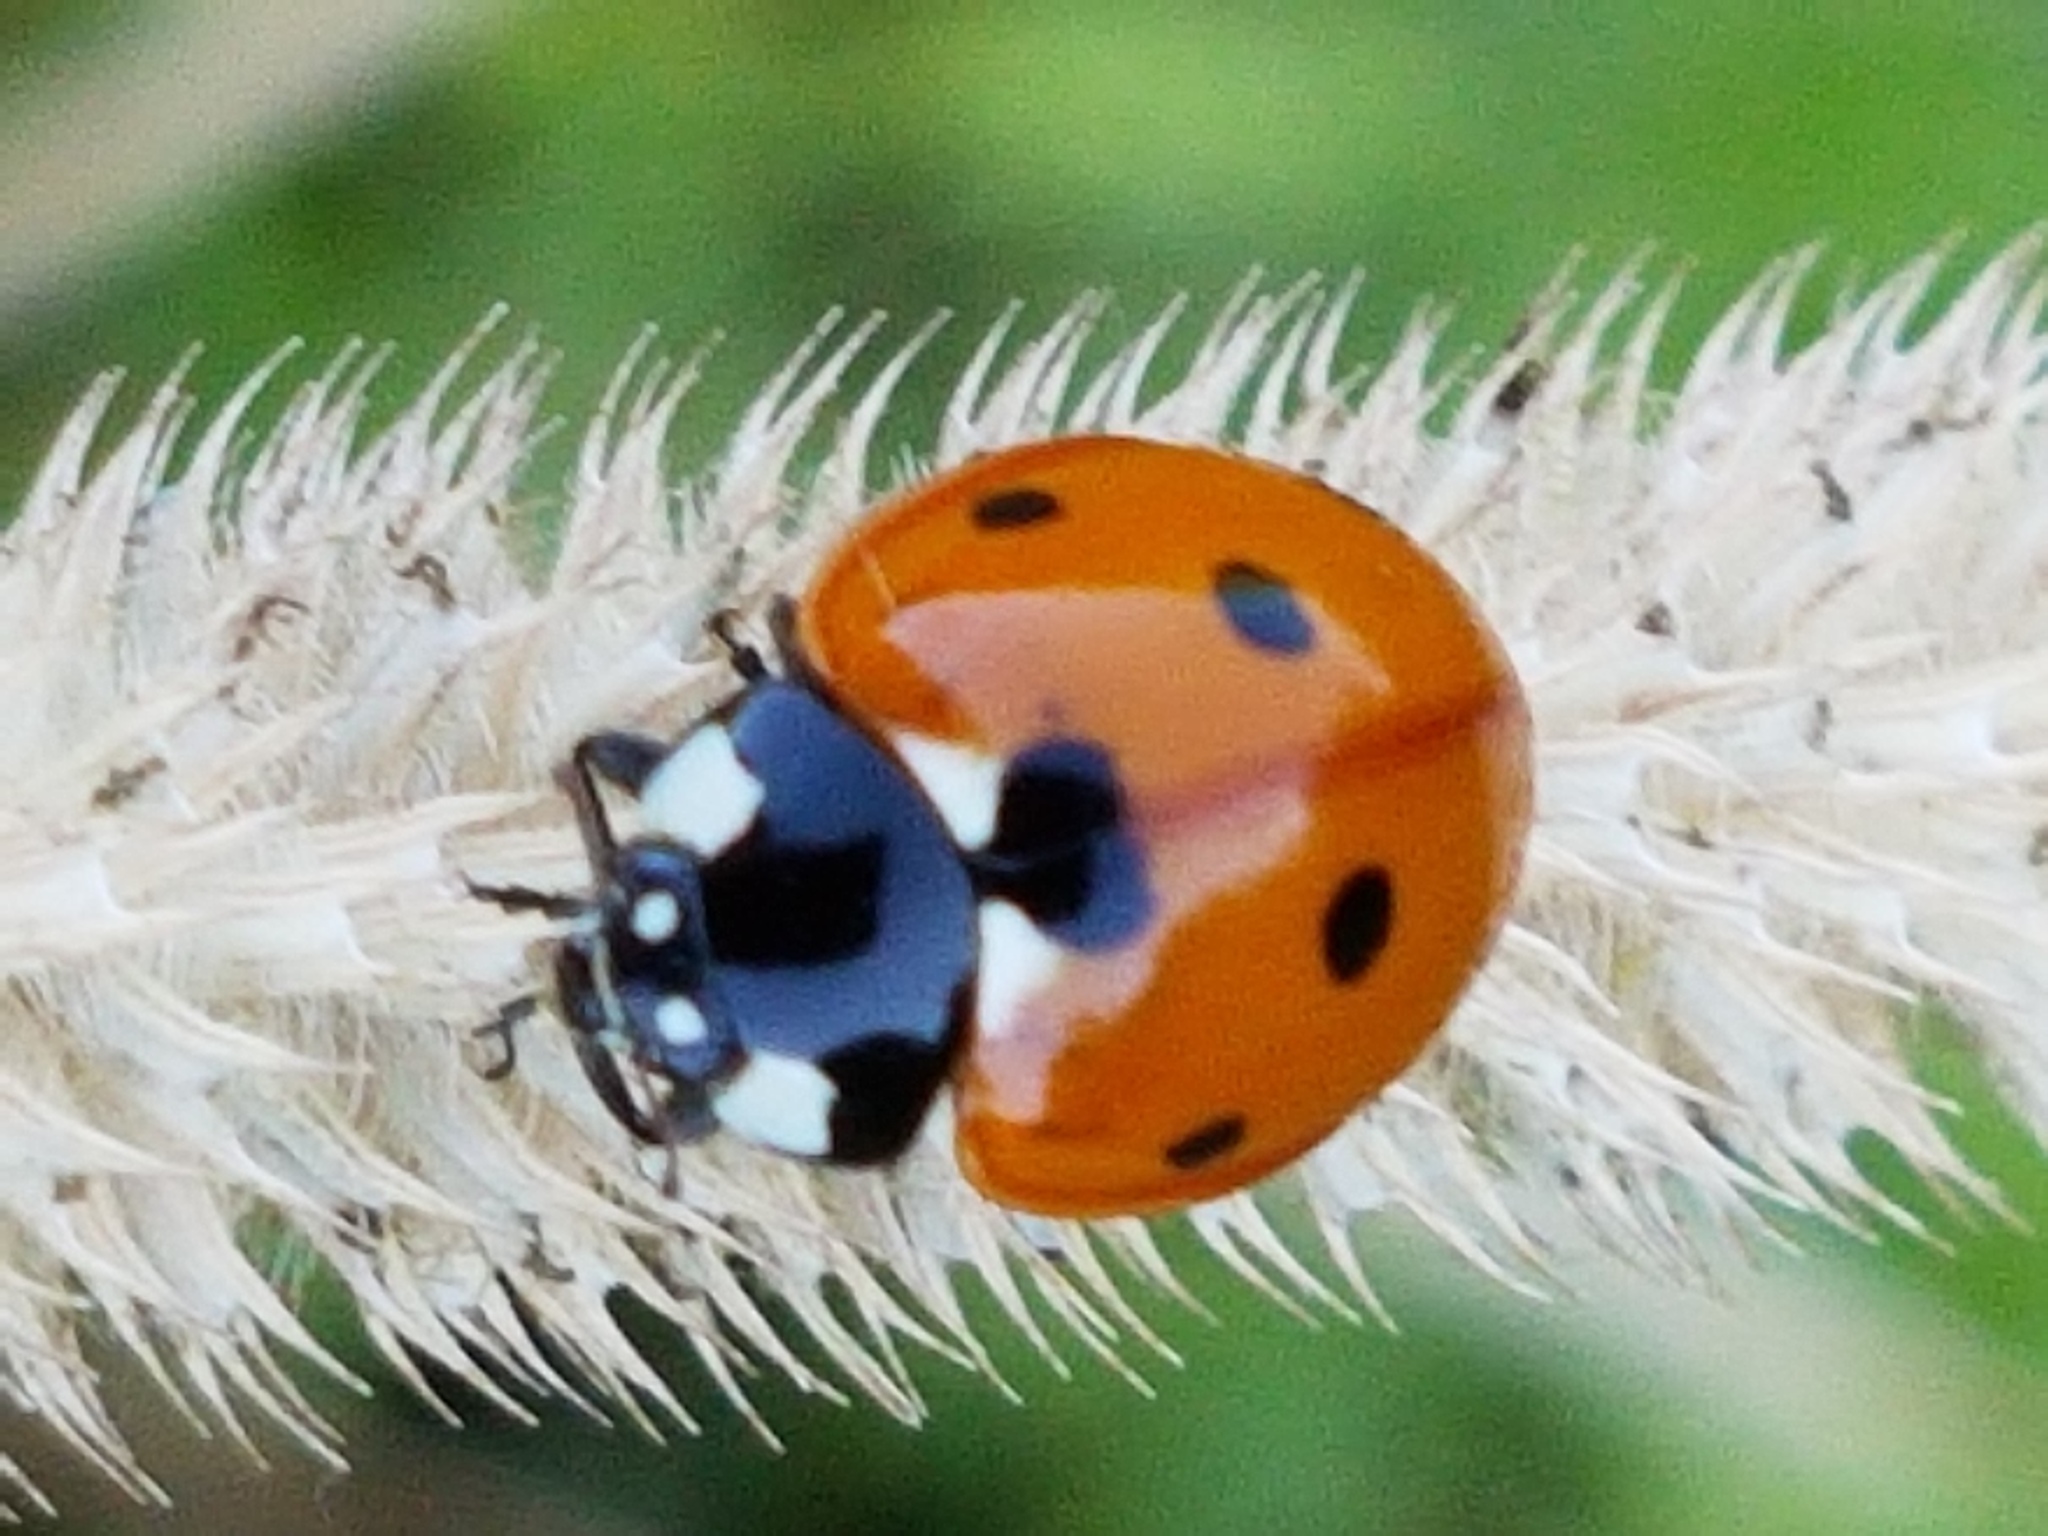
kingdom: Animalia
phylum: Arthropoda
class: Insecta
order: Coleoptera
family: Coccinellidae
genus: Coccinella
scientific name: Coccinella septempunctata
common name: Sevenspotted lady beetle
